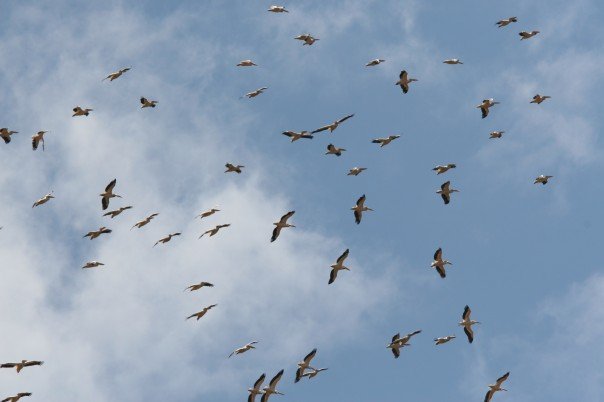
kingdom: Animalia
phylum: Chordata
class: Aves
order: Pelecaniformes
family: Pelecanidae
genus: Pelecanus
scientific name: Pelecanus onocrotalus
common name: Great white pelican
